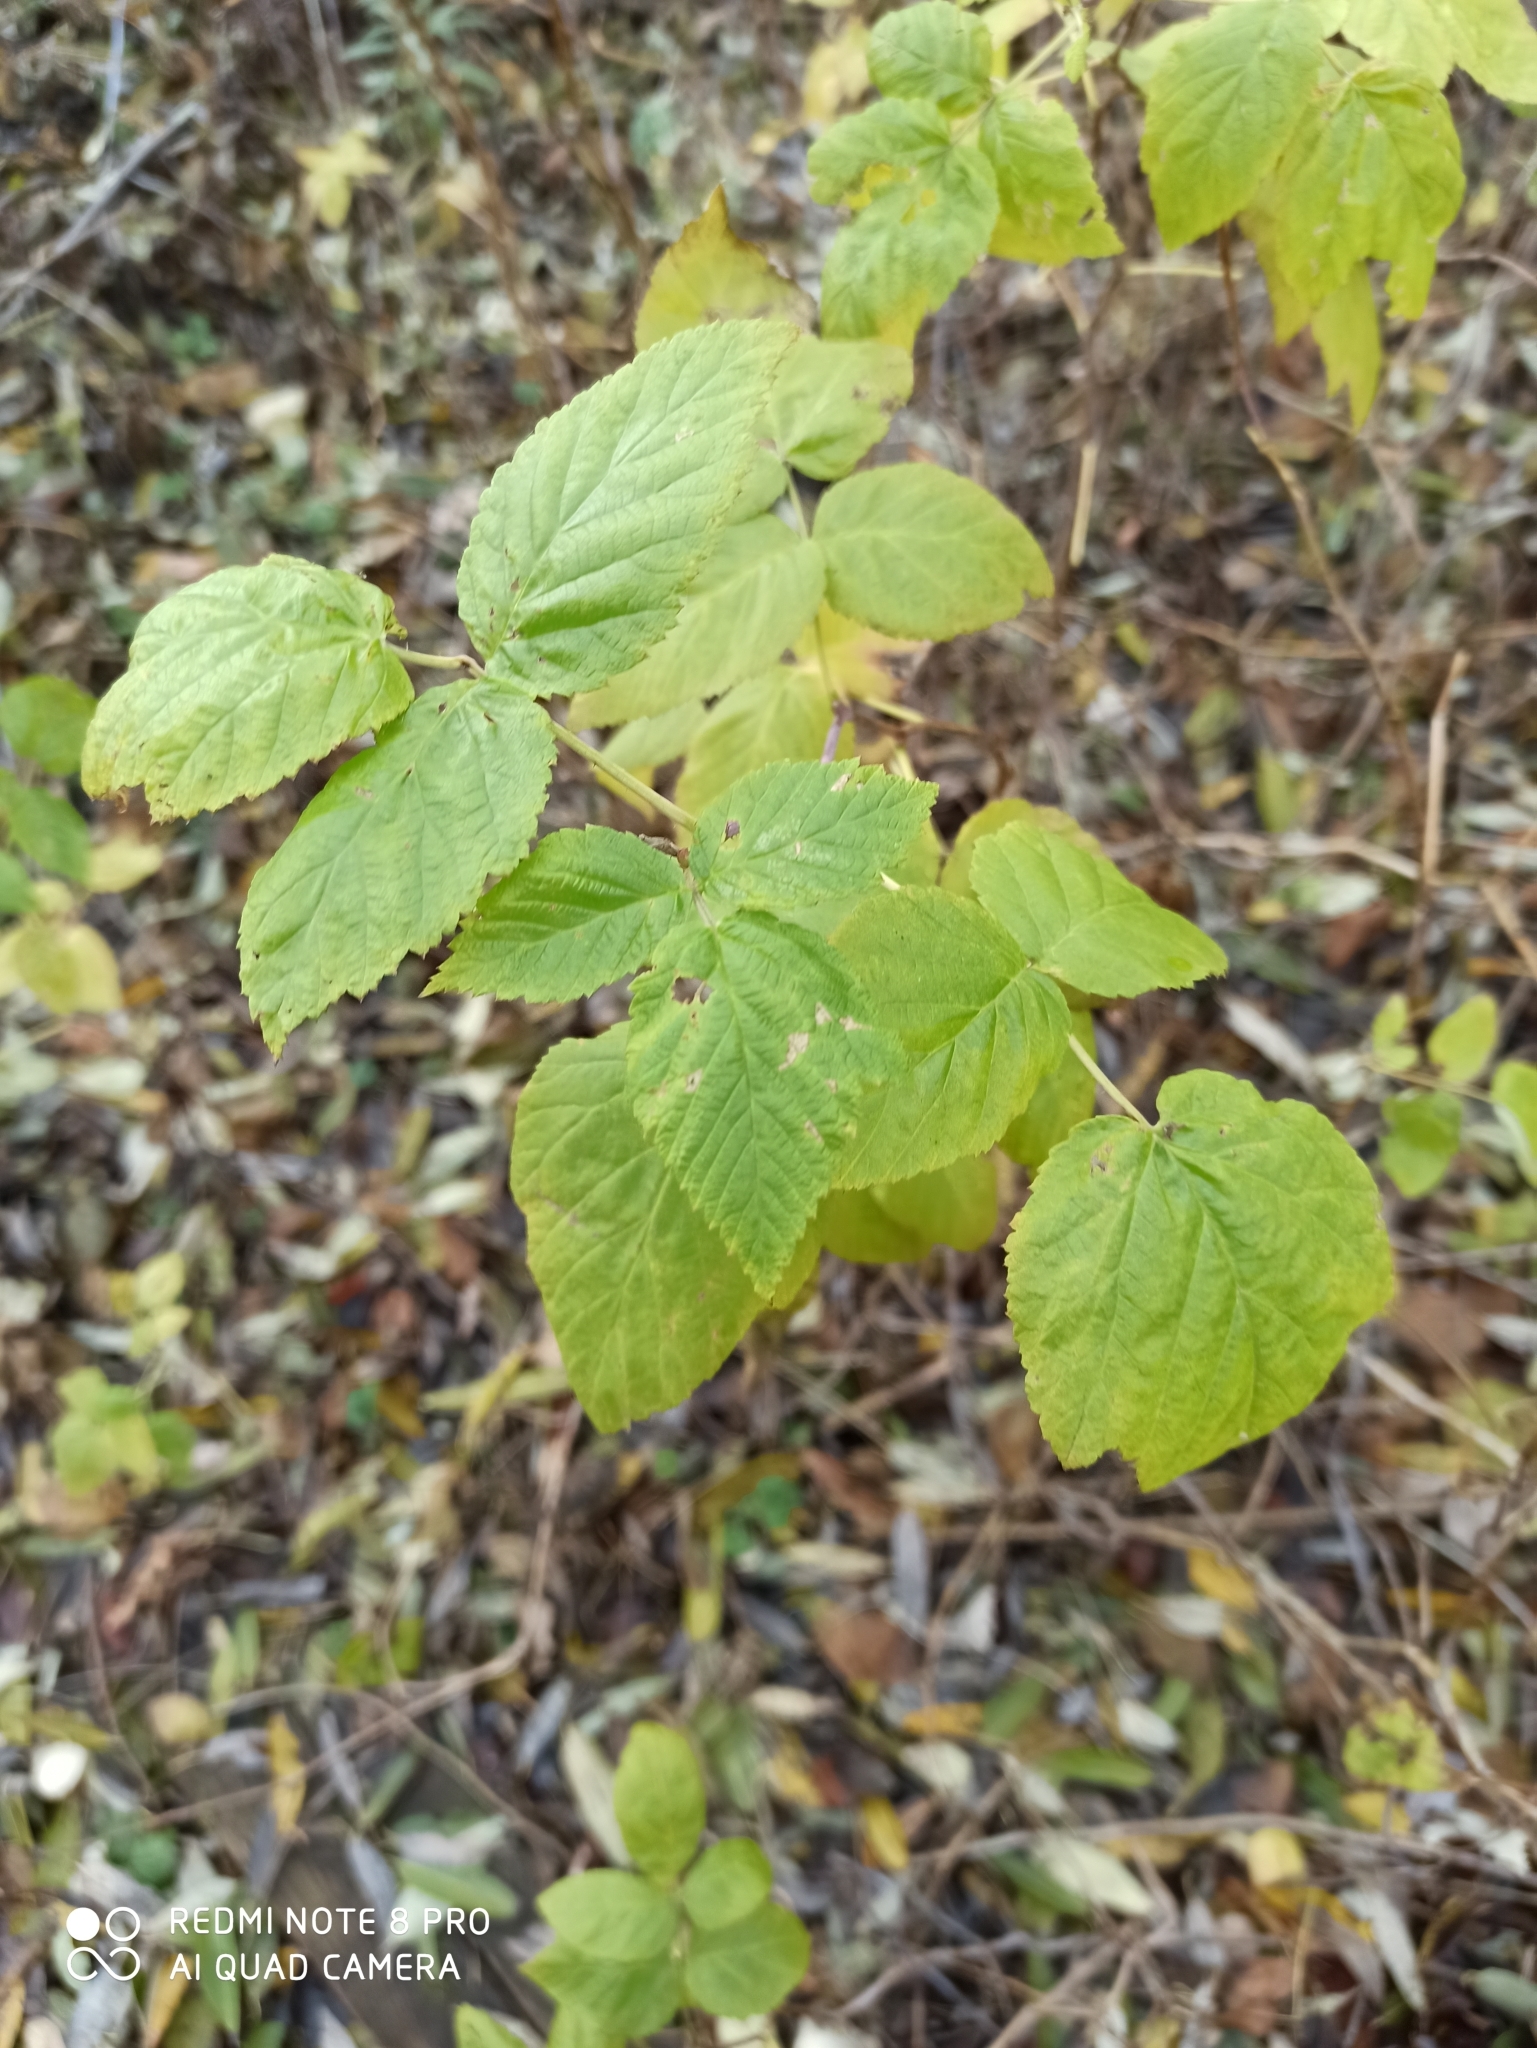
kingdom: Plantae
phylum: Tracheophyta
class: Magnoliopsida
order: Rosales
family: Rosaceae
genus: Rubus
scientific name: Rubus idaeus
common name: Raspberry
